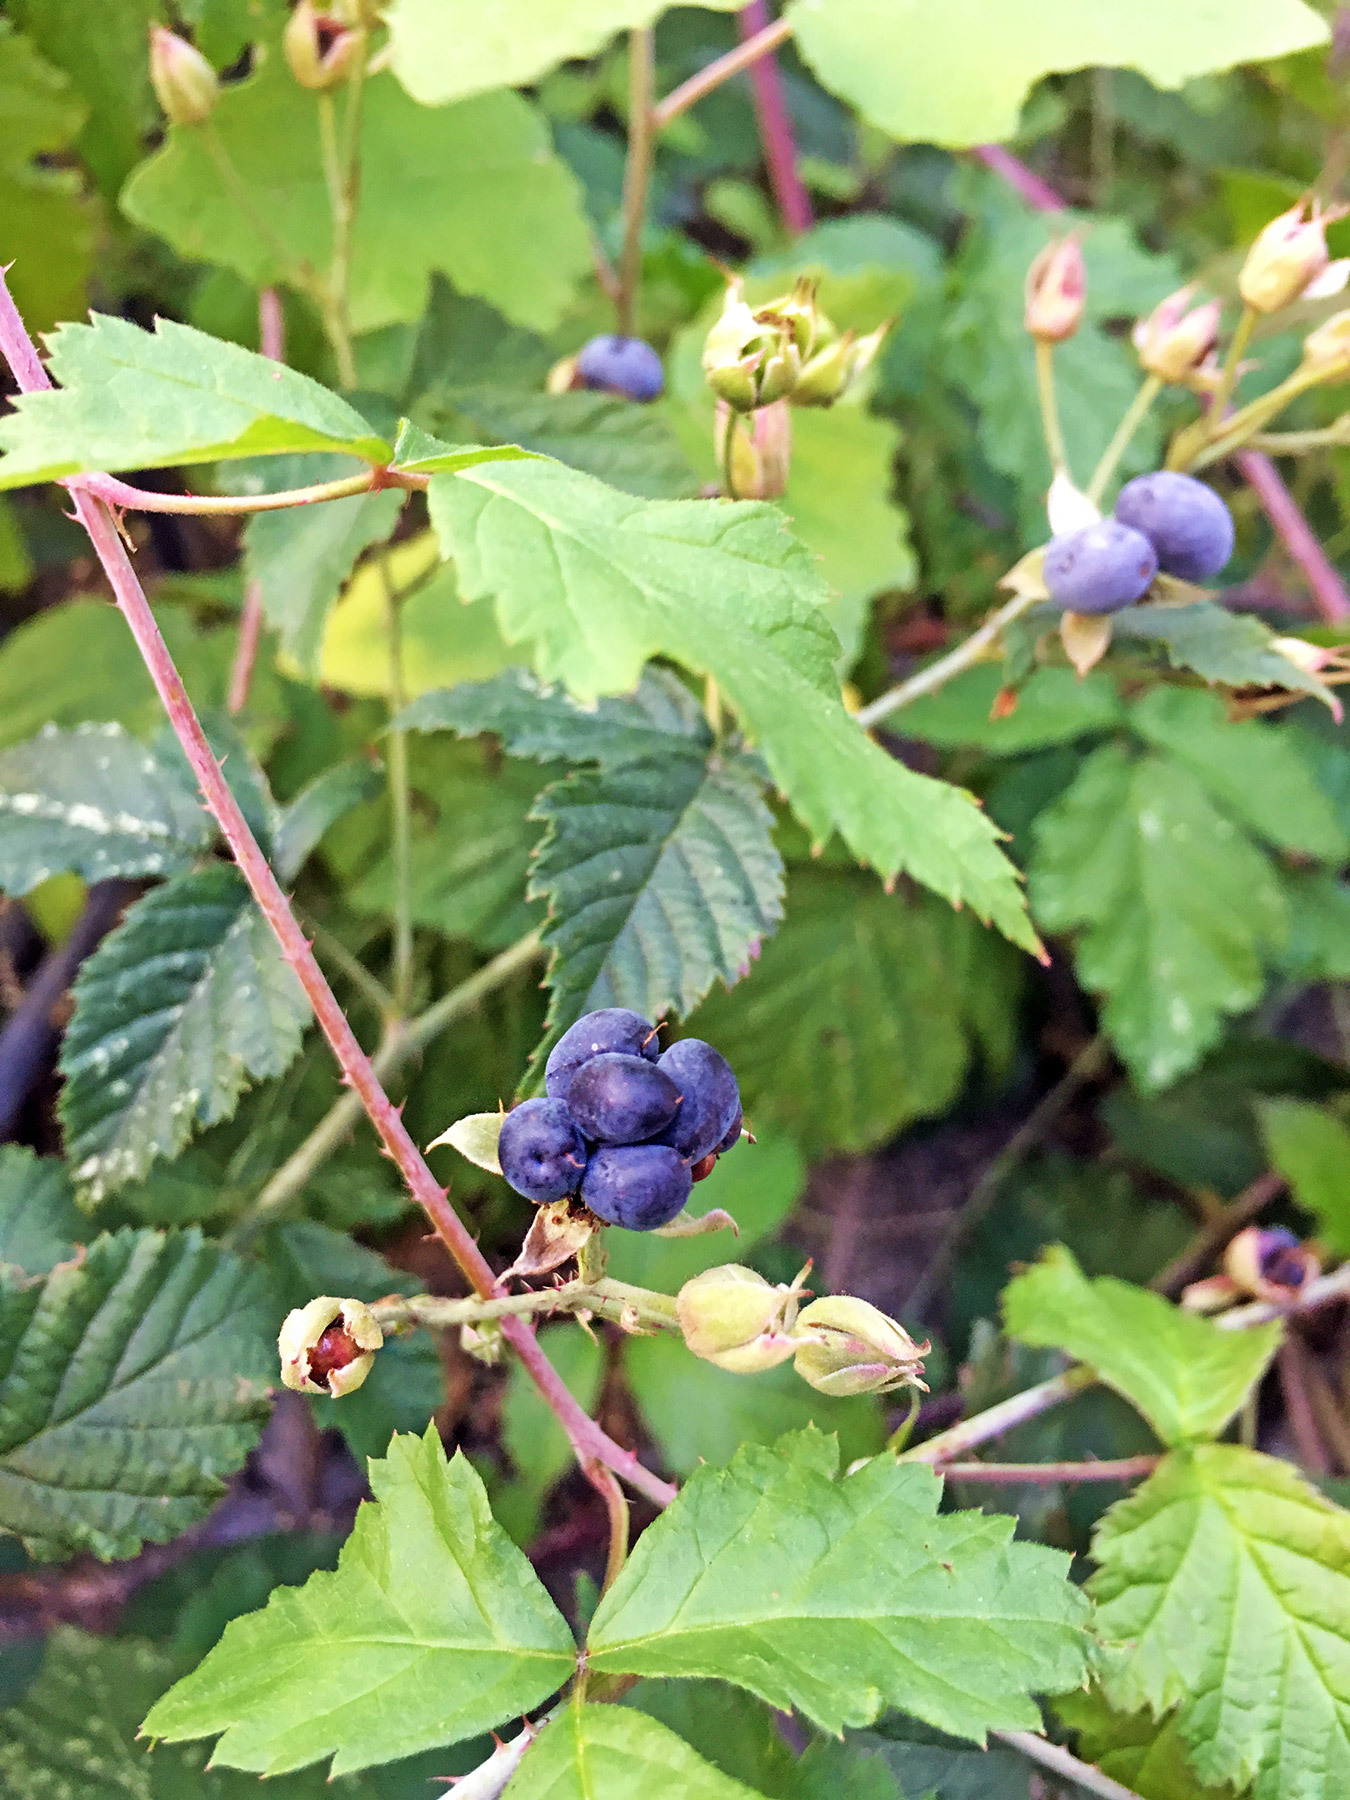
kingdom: Plantae
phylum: Tracheophyta
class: Magnoliopsida
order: Rosales
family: Rosaceae
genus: Rubus
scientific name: Rubus caesius
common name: Dewberry
